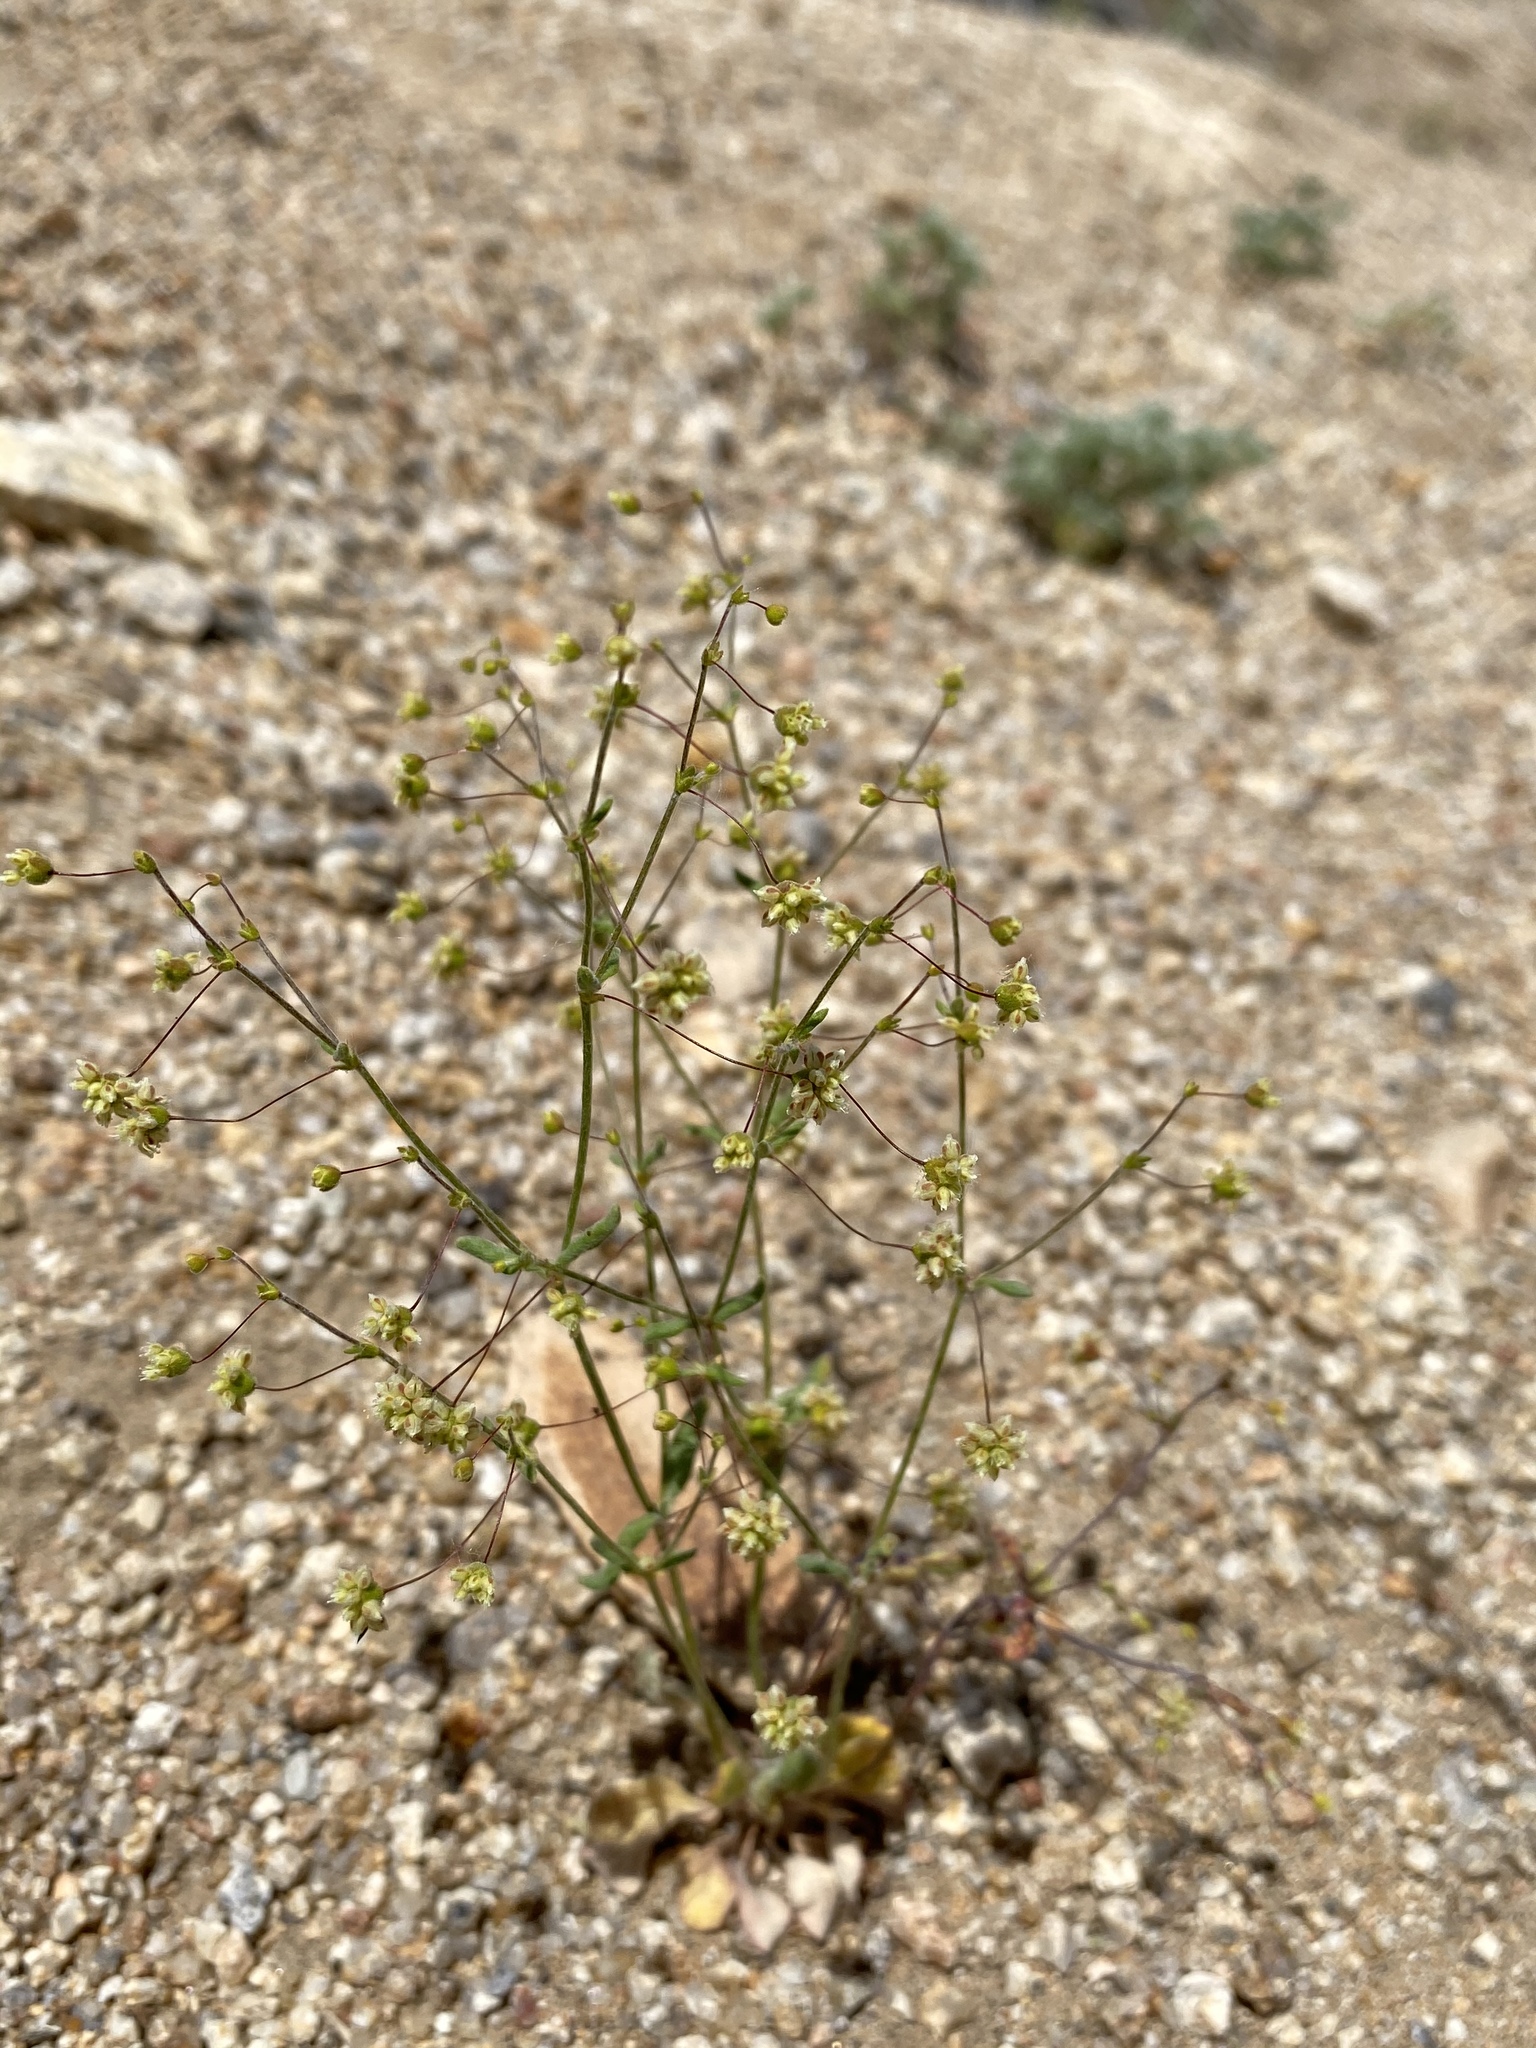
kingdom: Plantae
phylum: Tracheophyta
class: Magnoliopsida
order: Caryophyllales
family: Polygonaceae
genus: Eriogonum
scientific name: Eriogonum maculatum
